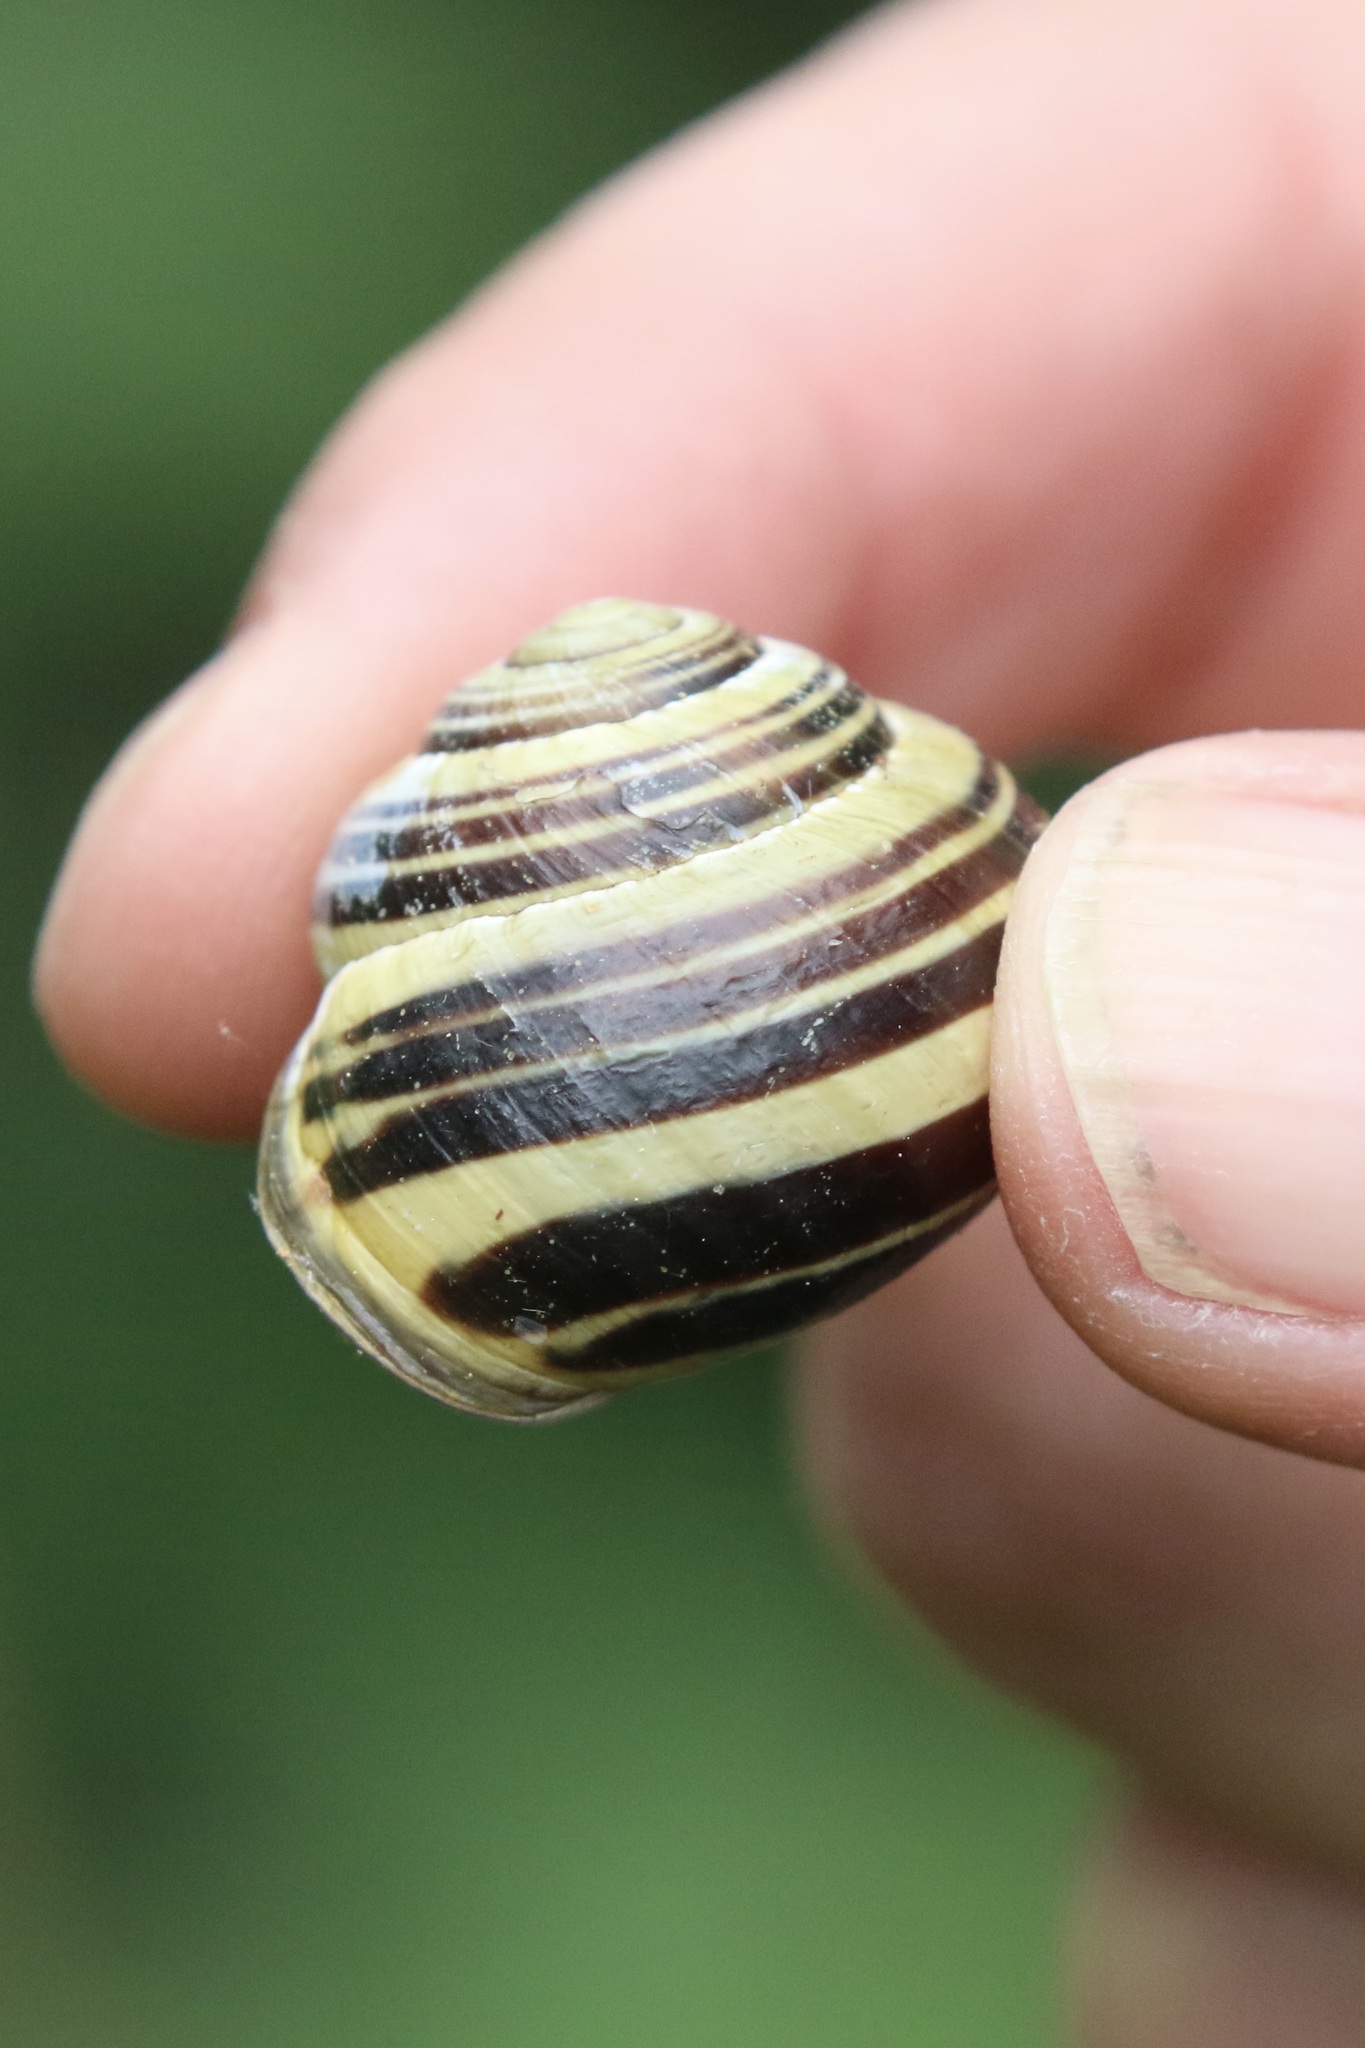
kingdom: Animalia
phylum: Mollusca
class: Gastropoda
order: Stylommatophora
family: Helicidae
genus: Cepaea
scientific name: Cepaea nemoralis
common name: Grovesnail
